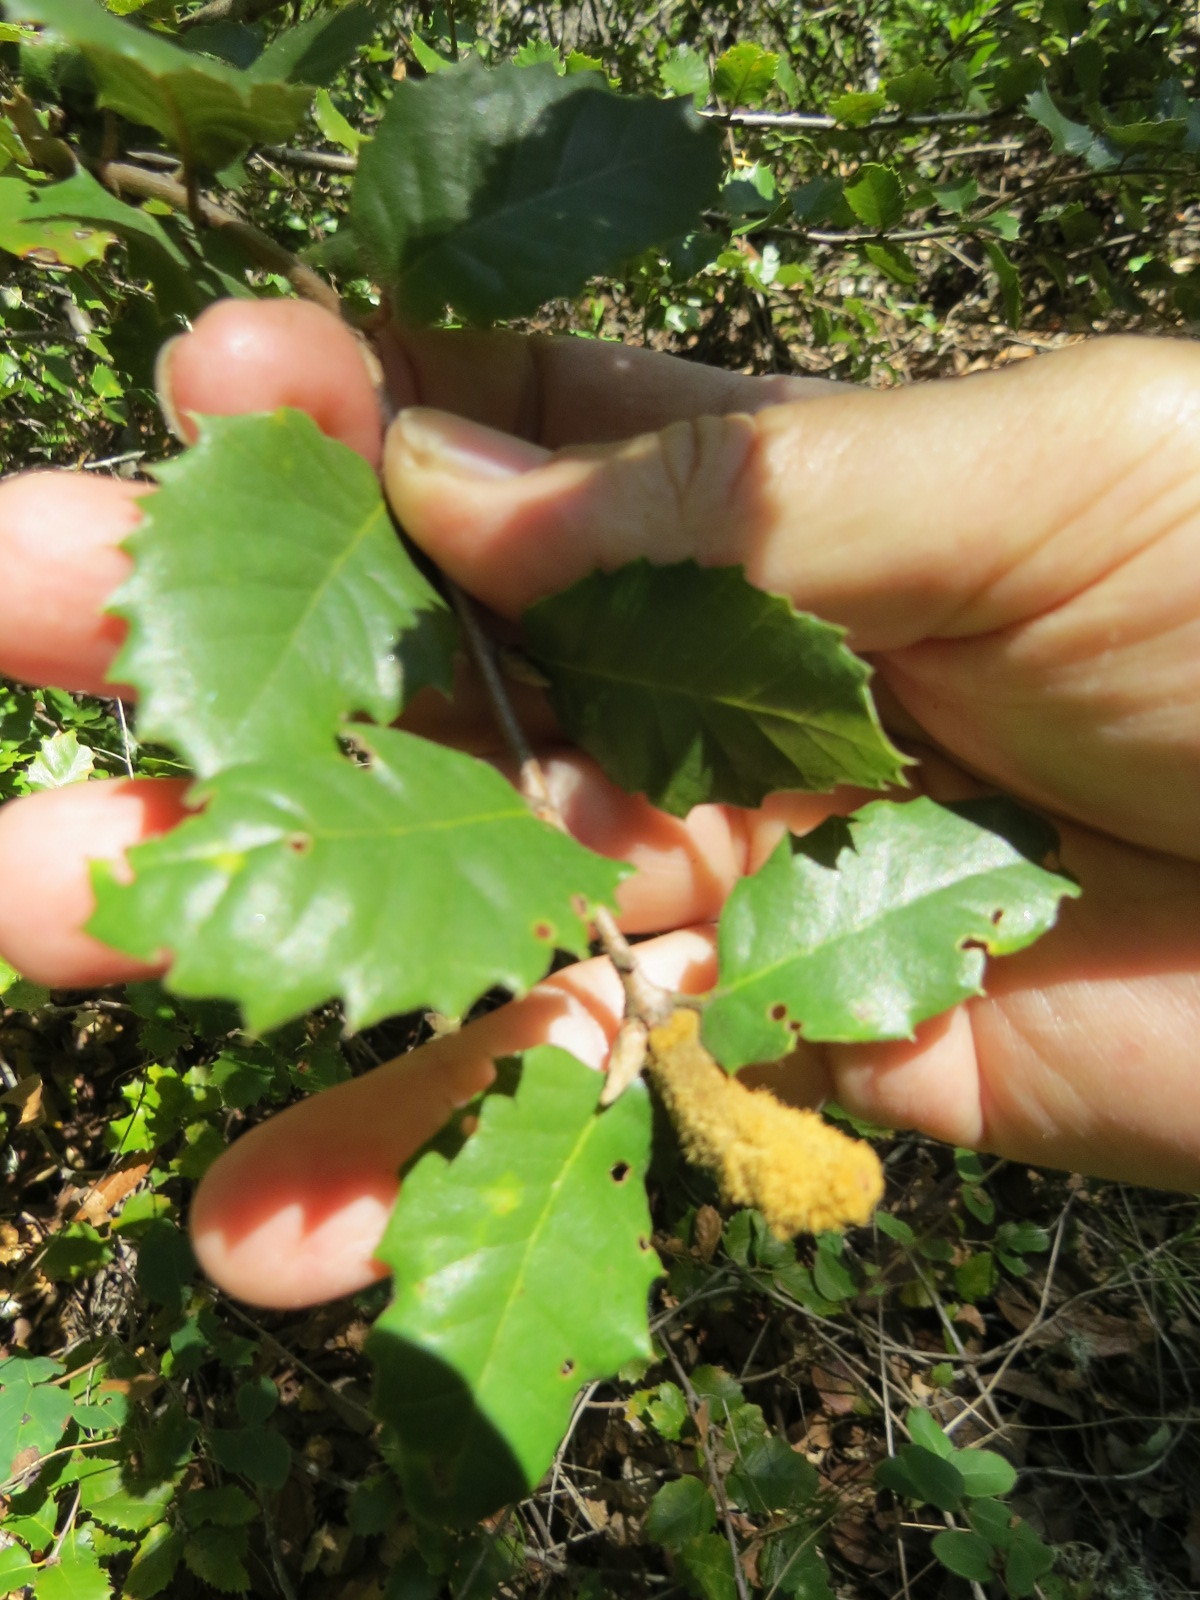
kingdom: Animalia
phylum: Arthropoda
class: Insecta
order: Hymenoptera
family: Cynipidae
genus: Heteroecus
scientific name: Heteroecus
